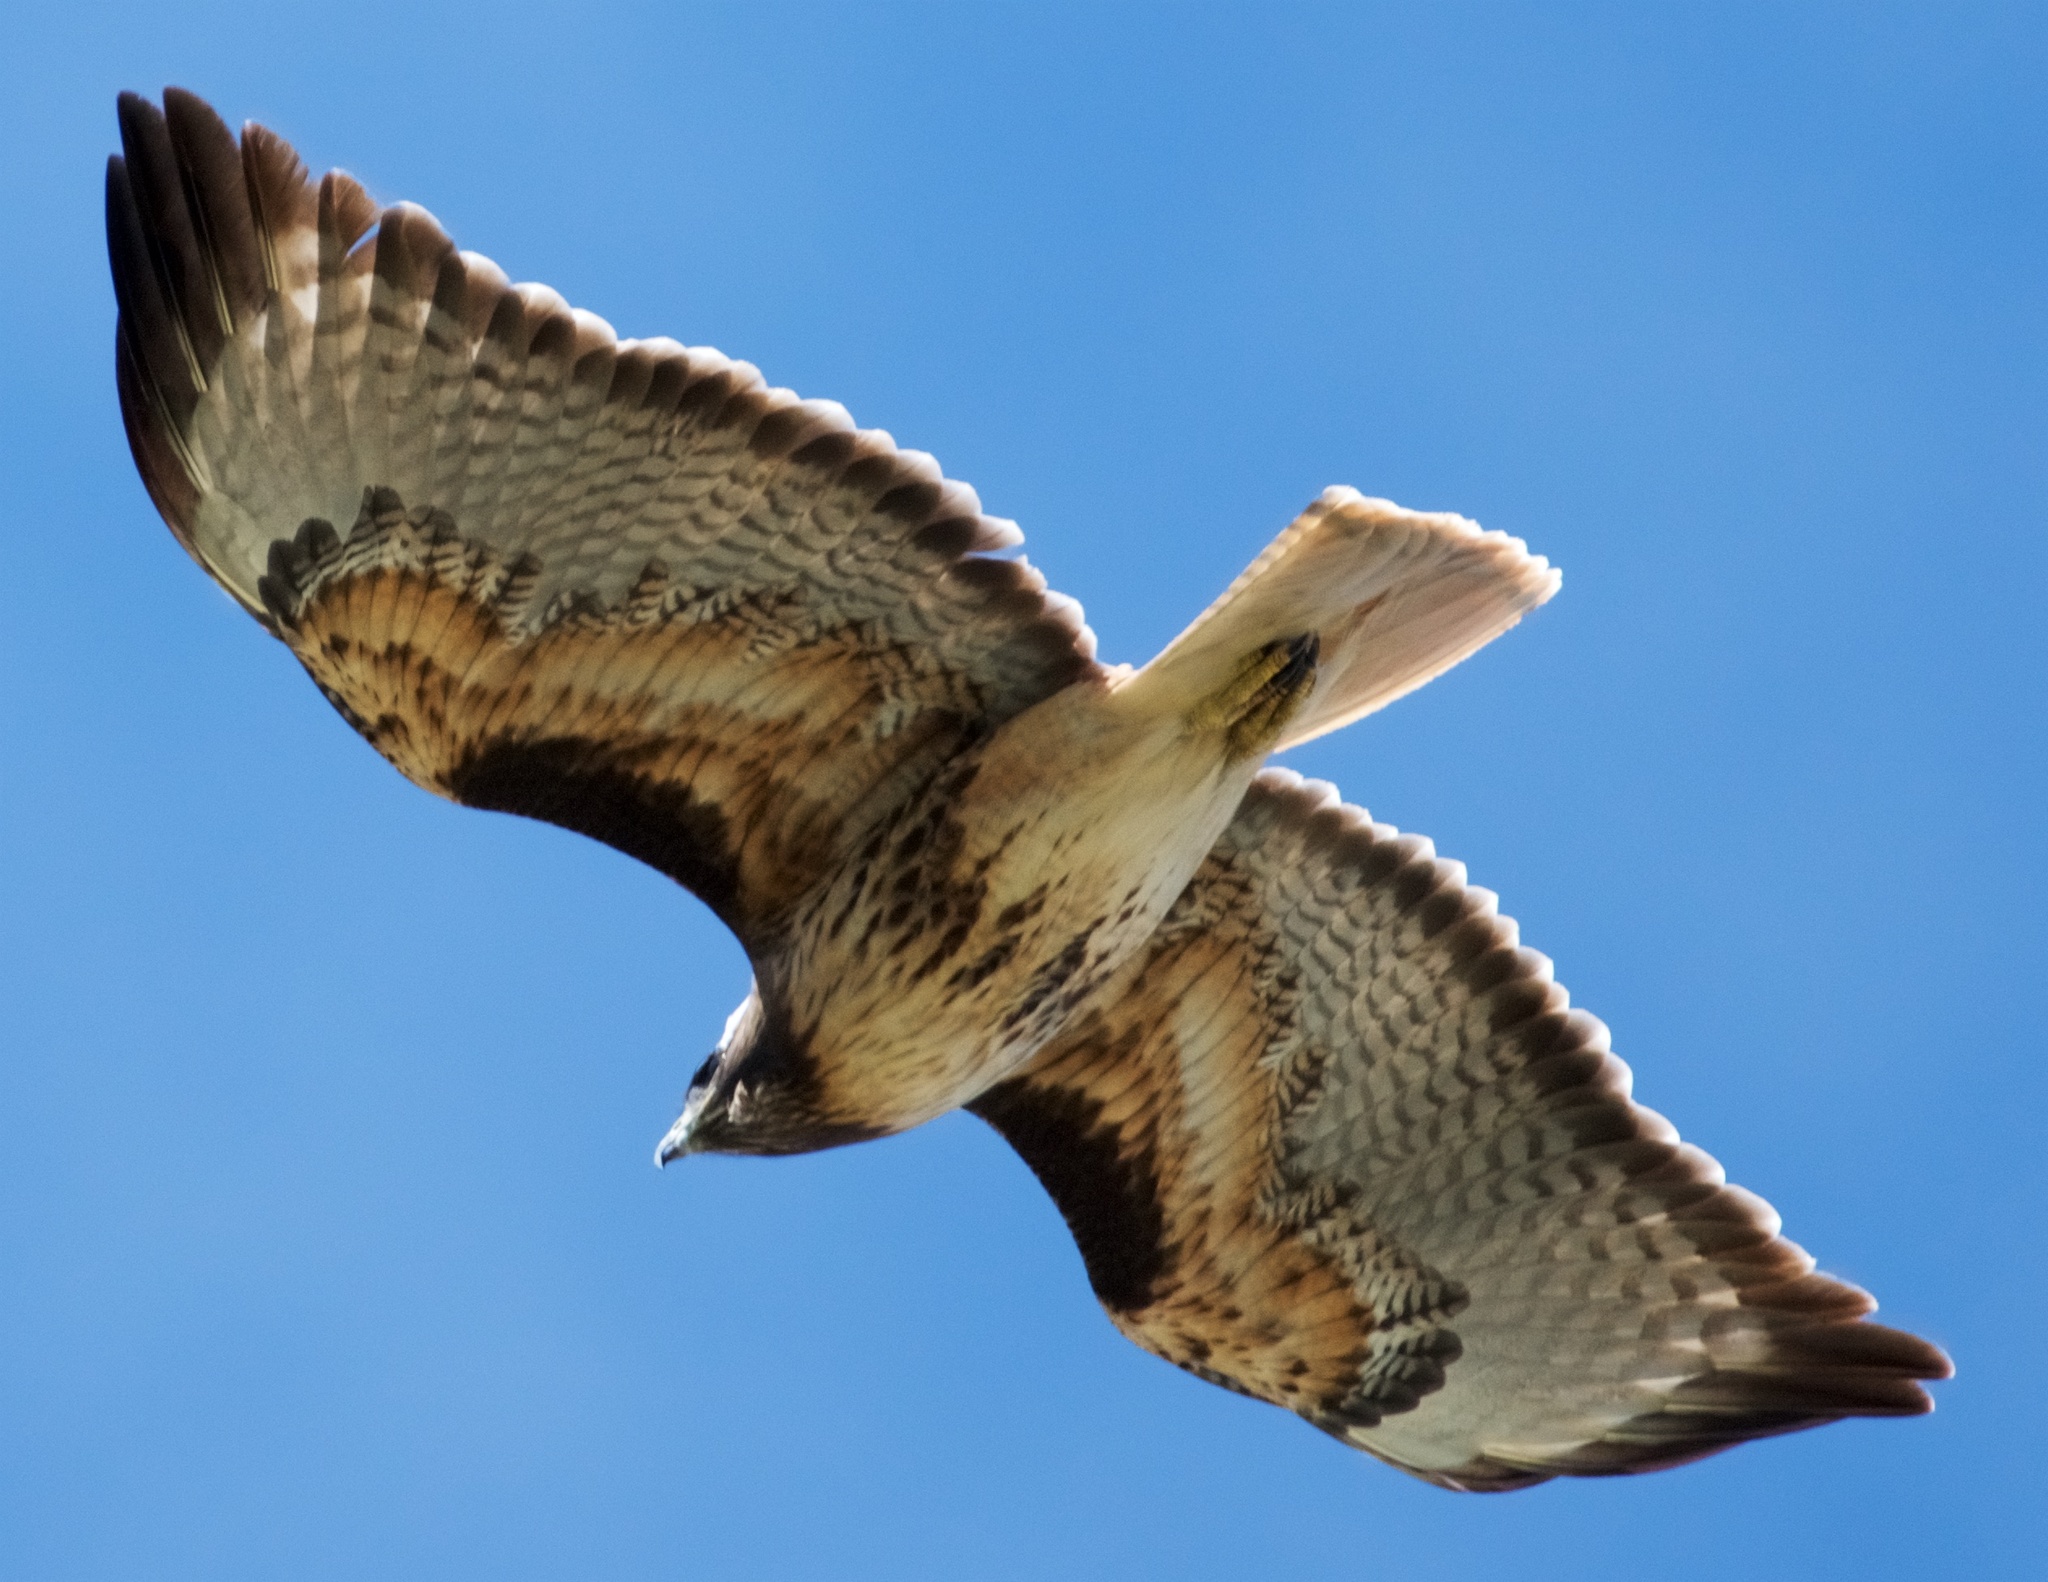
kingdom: Animalia
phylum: Chordata
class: Aves
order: Accipitriformes
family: Accipitridae
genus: Buteo
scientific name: Buteo jamaicensis
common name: Red-tailed hawk
